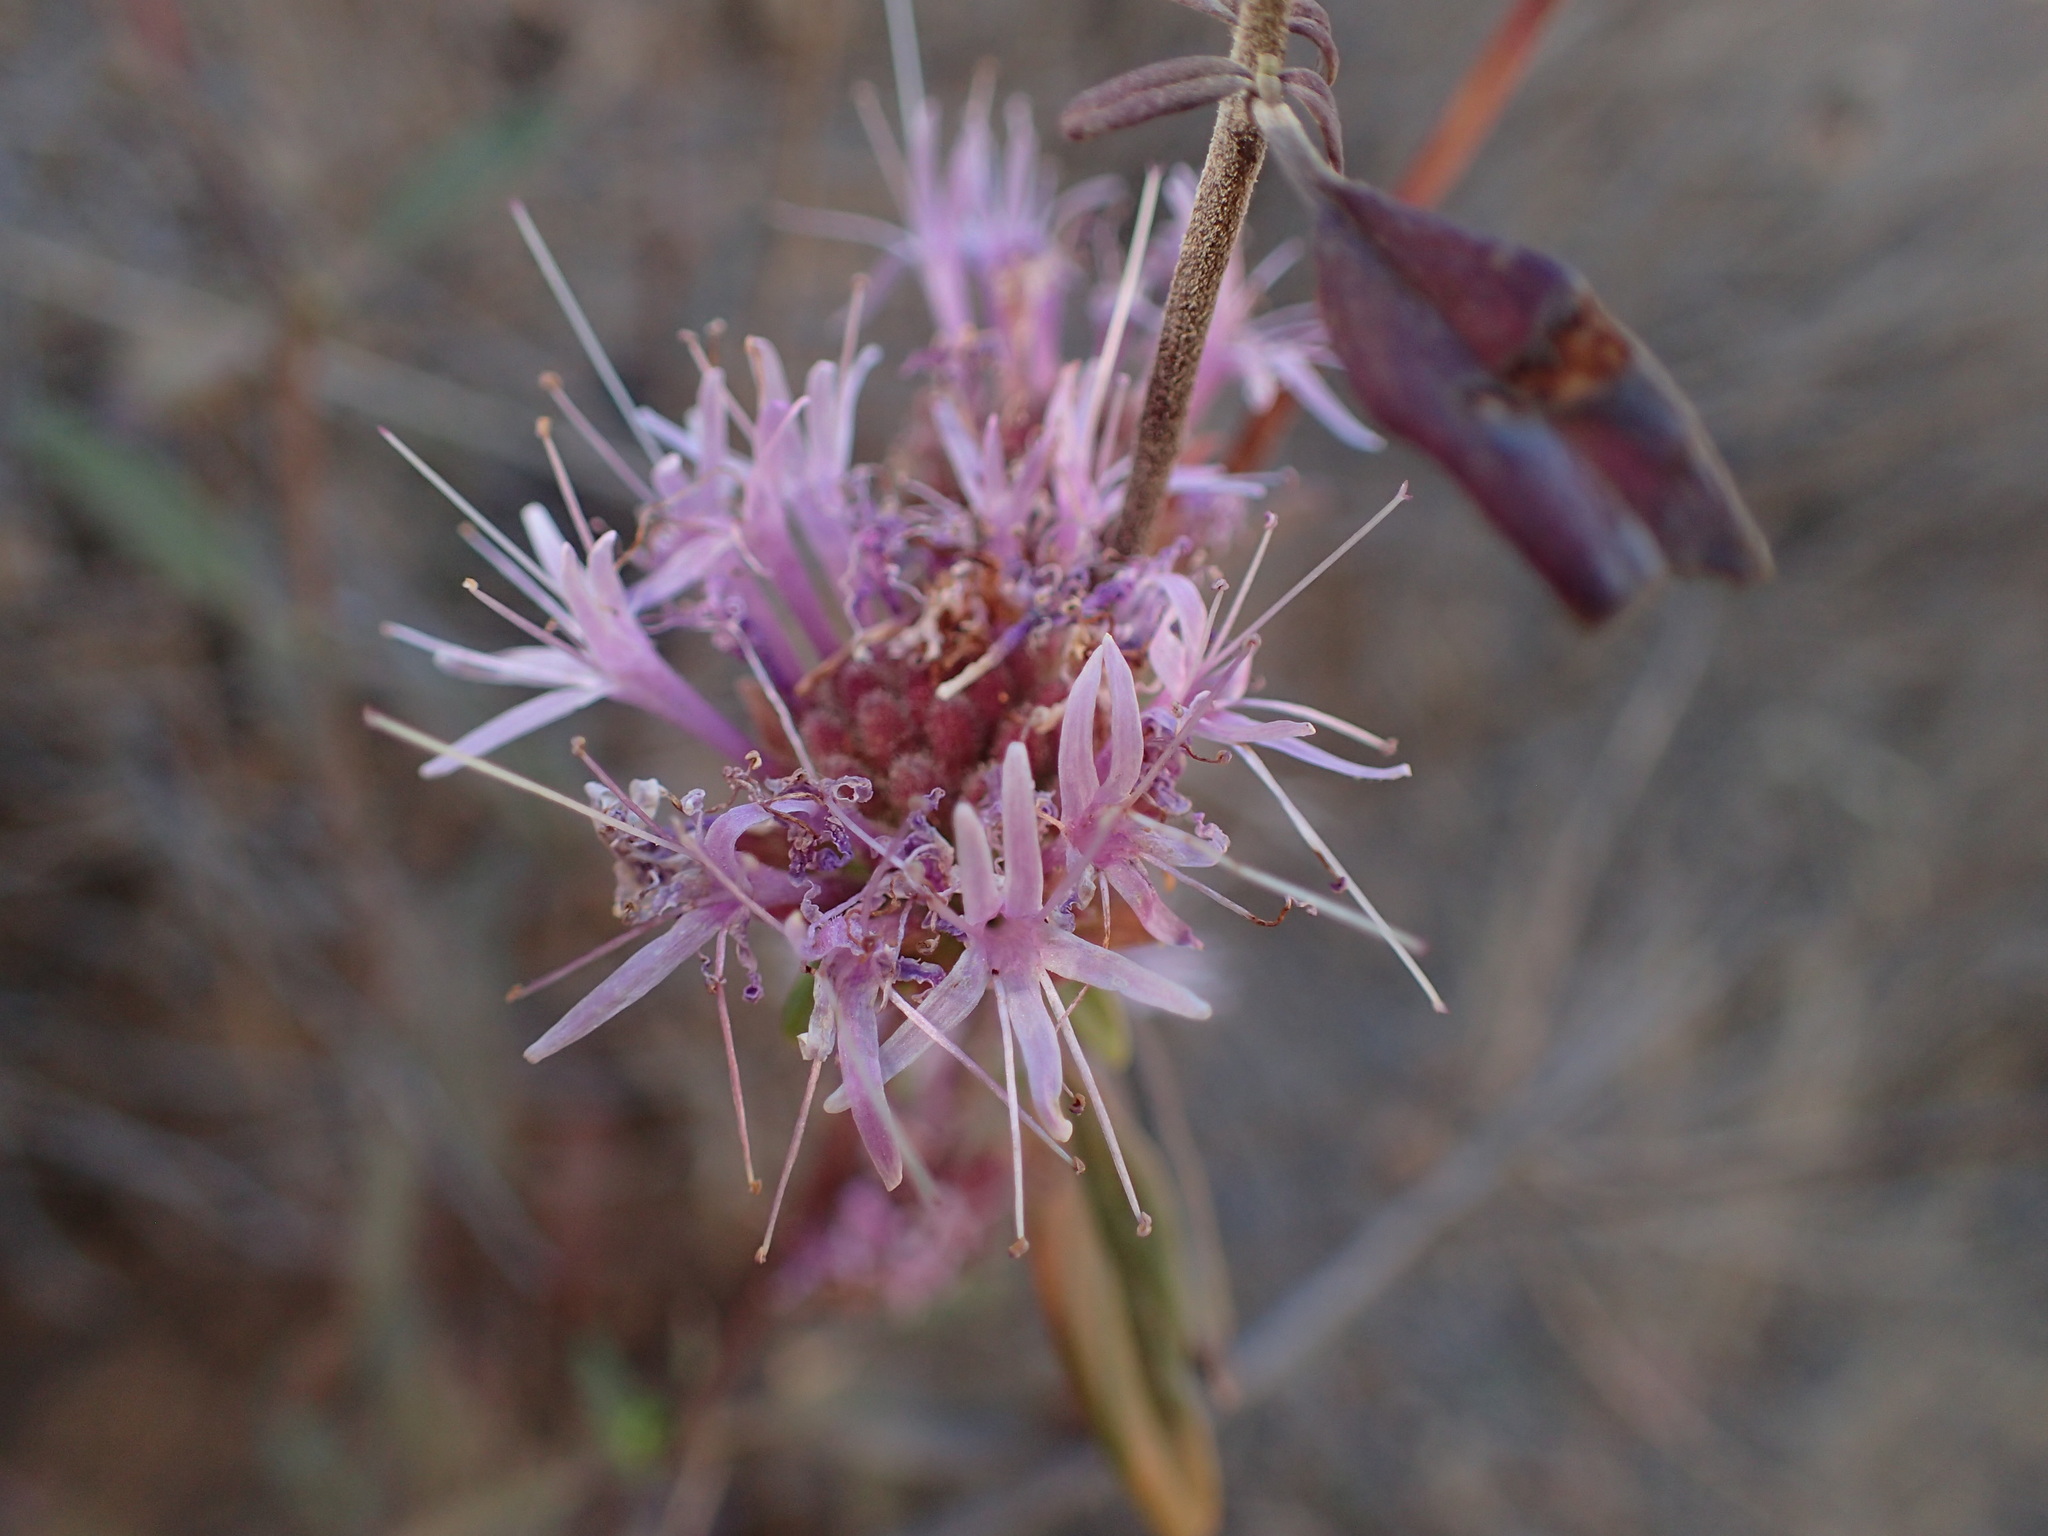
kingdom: Plantae
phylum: Tracheophyta
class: Magnoliopsida
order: Lamiales
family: Lamiaceae
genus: Monardella
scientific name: Monardella hypoleuca
